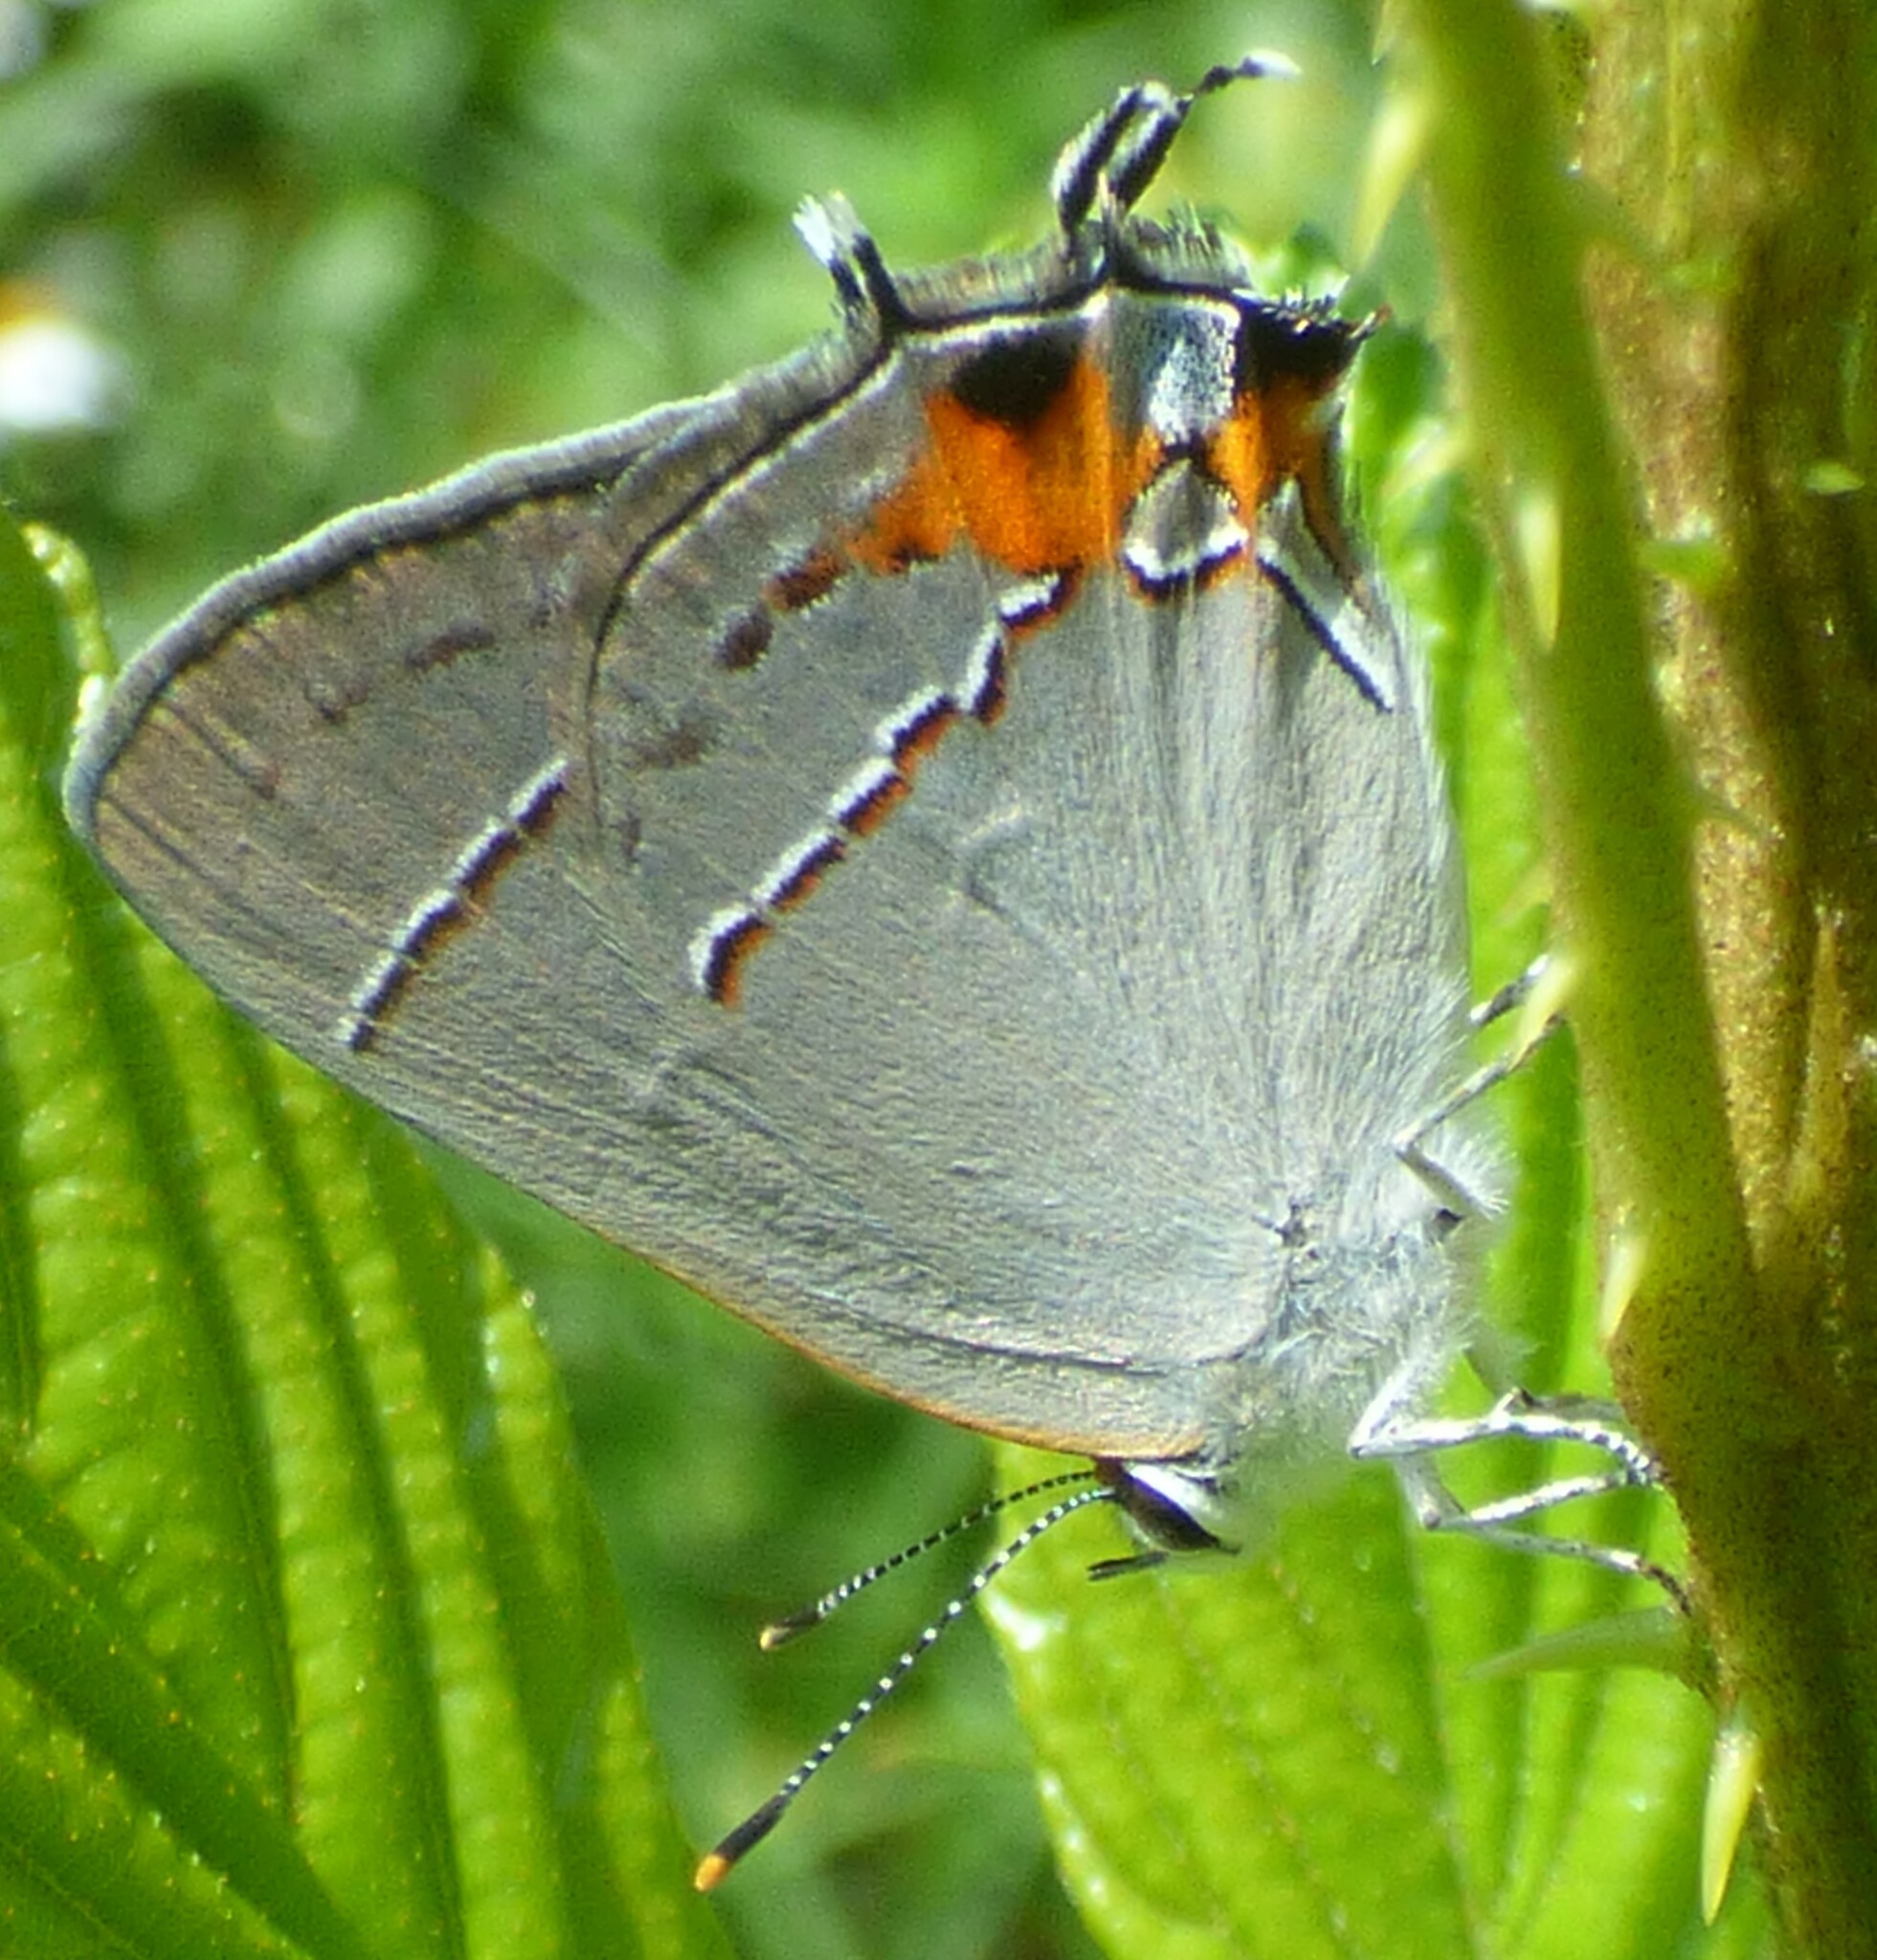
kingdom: Animalia
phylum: Arthropoda
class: Insecta
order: Lepidoptera
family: Lycaenidae
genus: Strymon
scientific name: Strymon melinus
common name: Gray hairstreak
